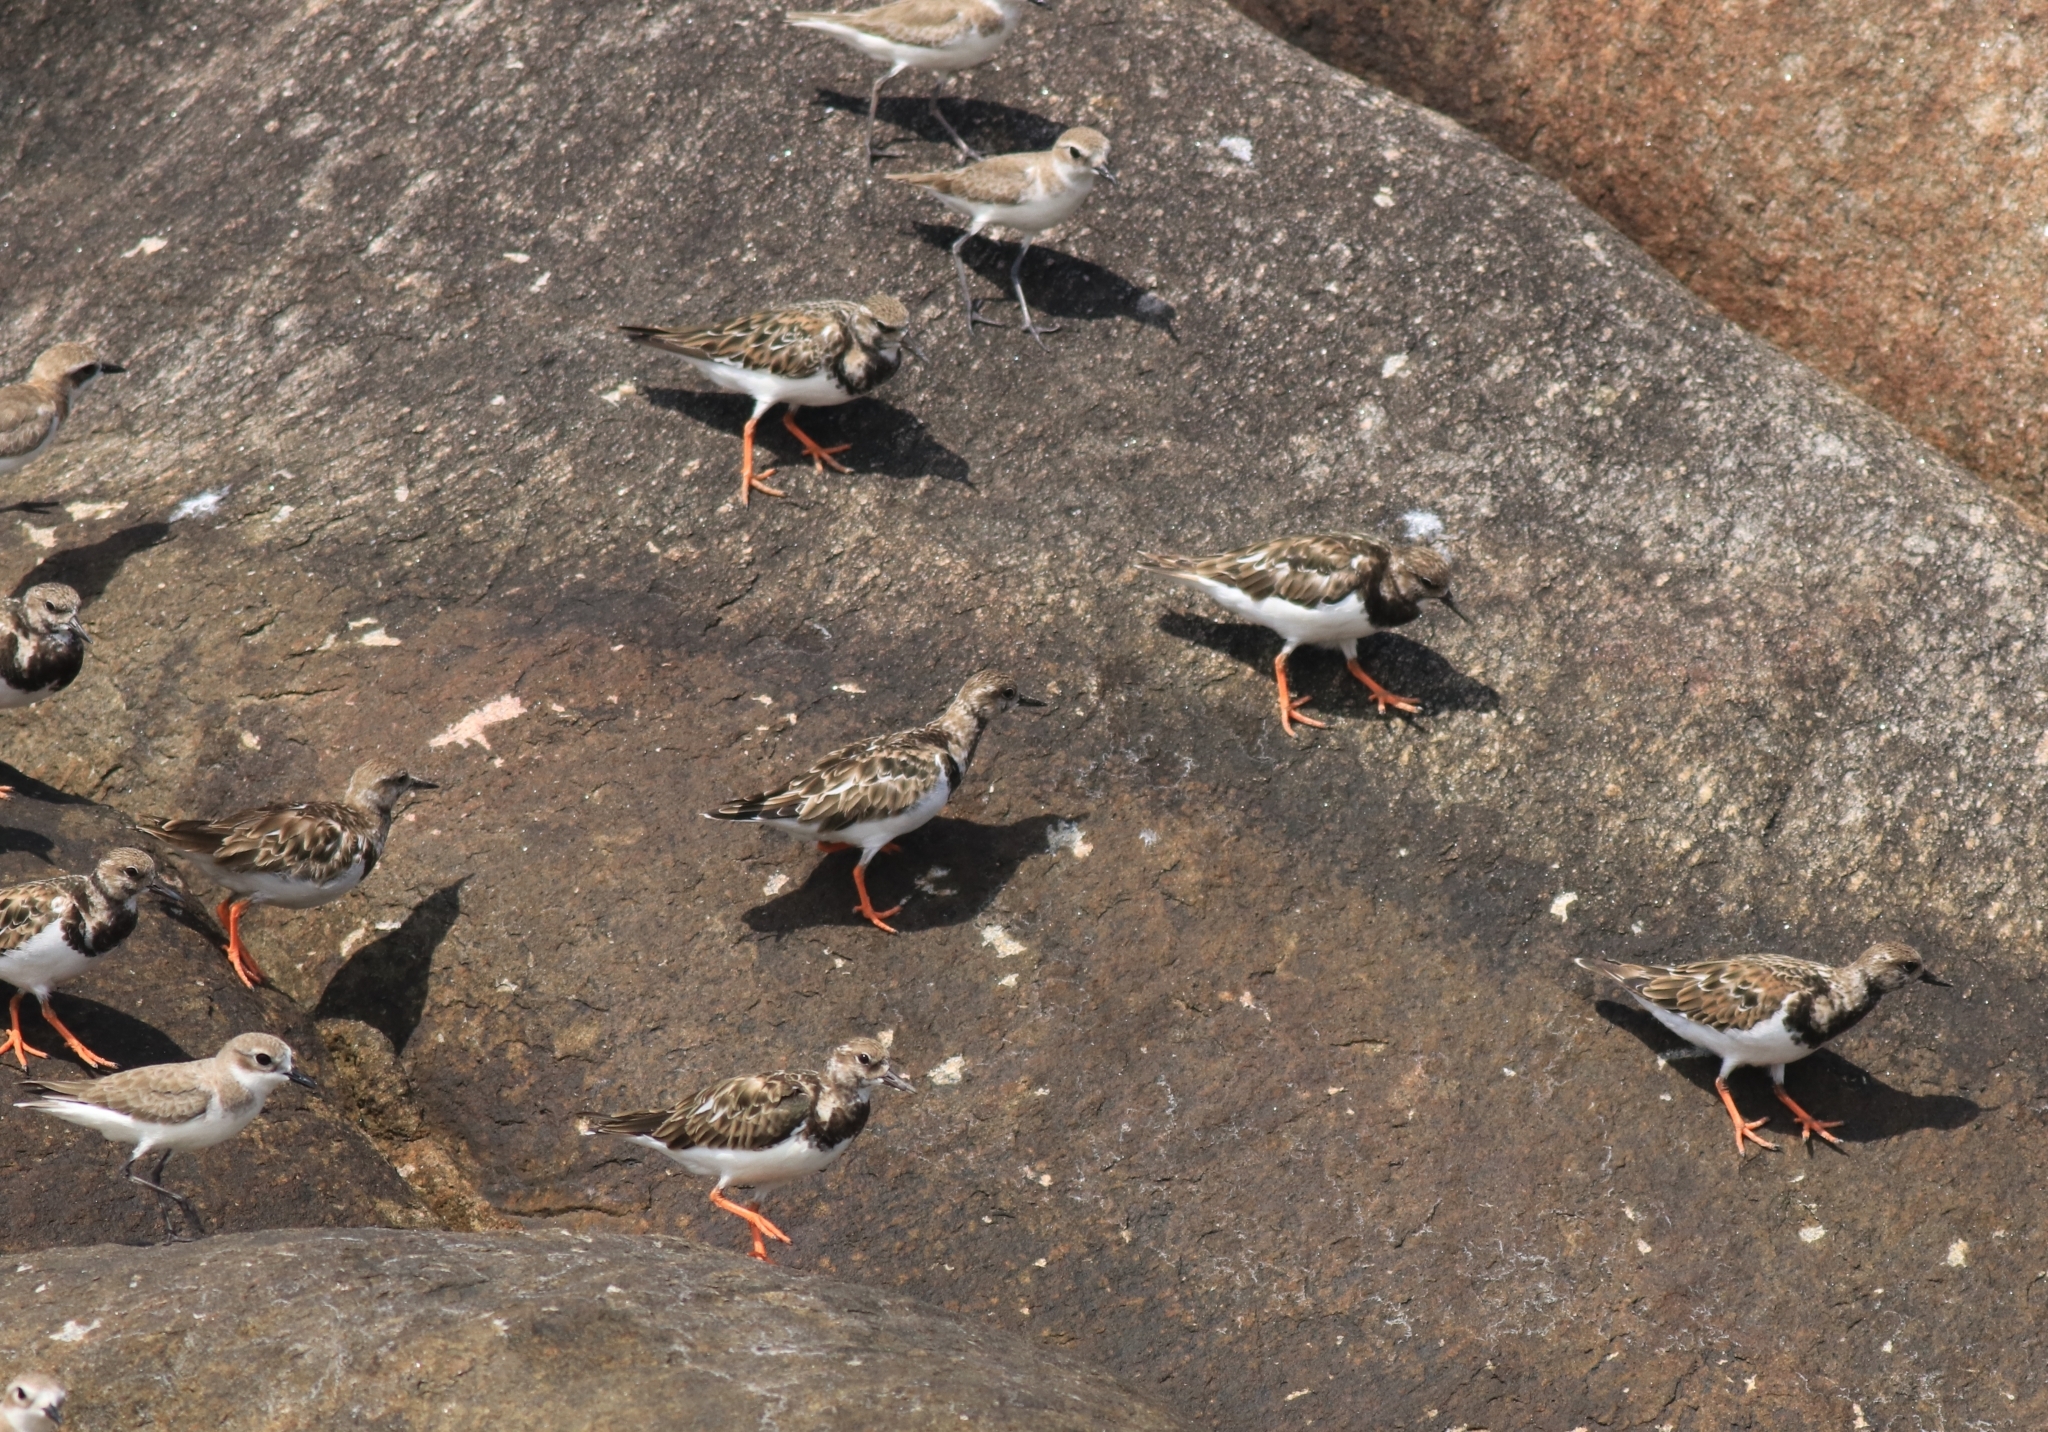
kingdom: Animalia
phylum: Chordata
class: Aves
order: Charadriiformes
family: Scolopacidae
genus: Arenaria
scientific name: Arenaria interpres
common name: Ruddy turnstone
